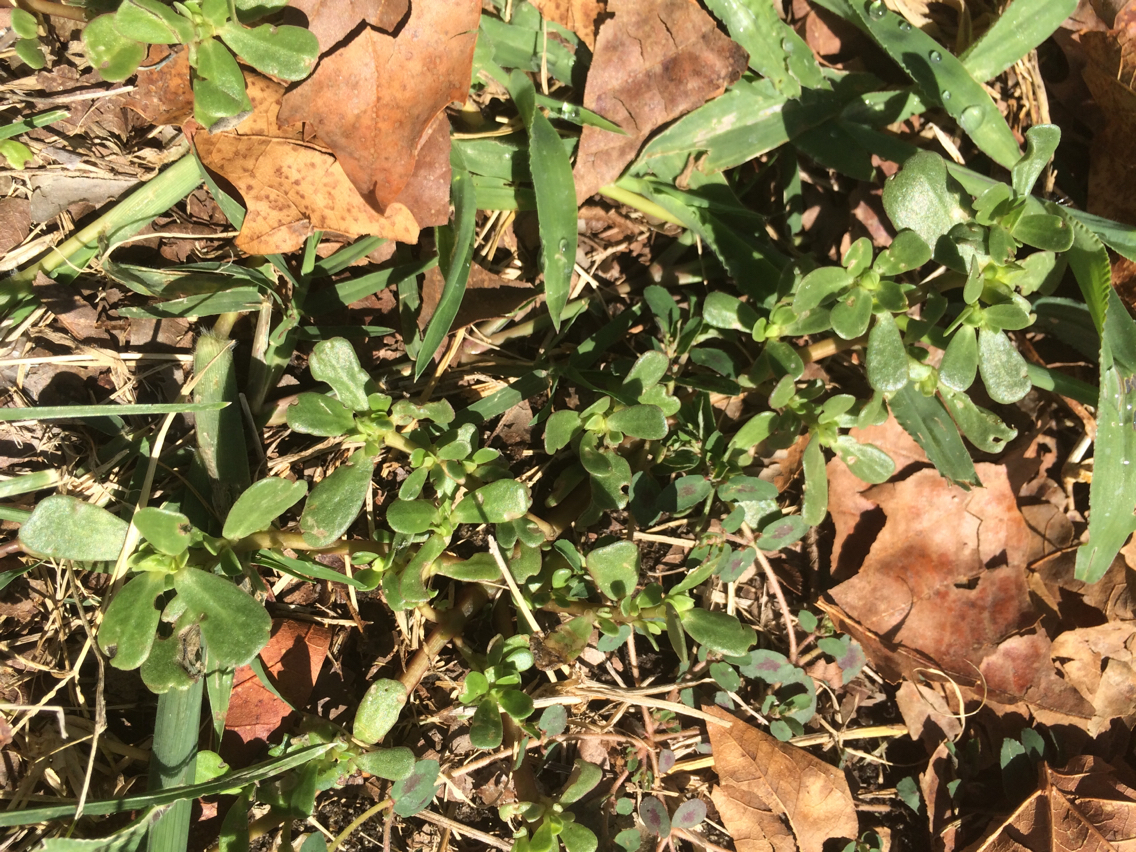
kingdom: Plantae
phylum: Tracheophyta
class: Magnoliopsida
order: Caryophyllales
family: Portulacaceae
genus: Portulaca
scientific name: Portulaca oleracea
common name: Common purslane
